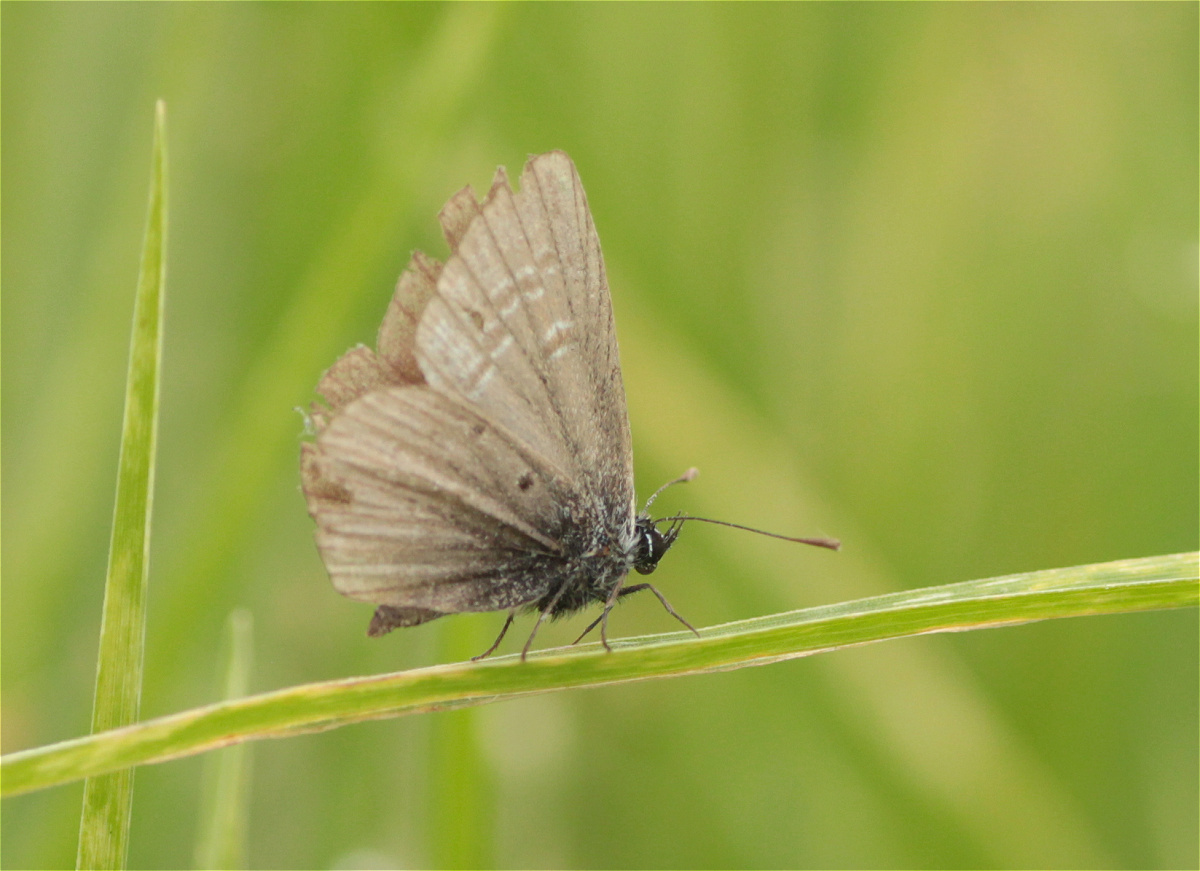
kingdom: Animalia
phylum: Arthropoda
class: Insecta
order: Lepidoptera
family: Lycaenidae
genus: Hemiargus
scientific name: Hemiargus hanno
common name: Common blue
